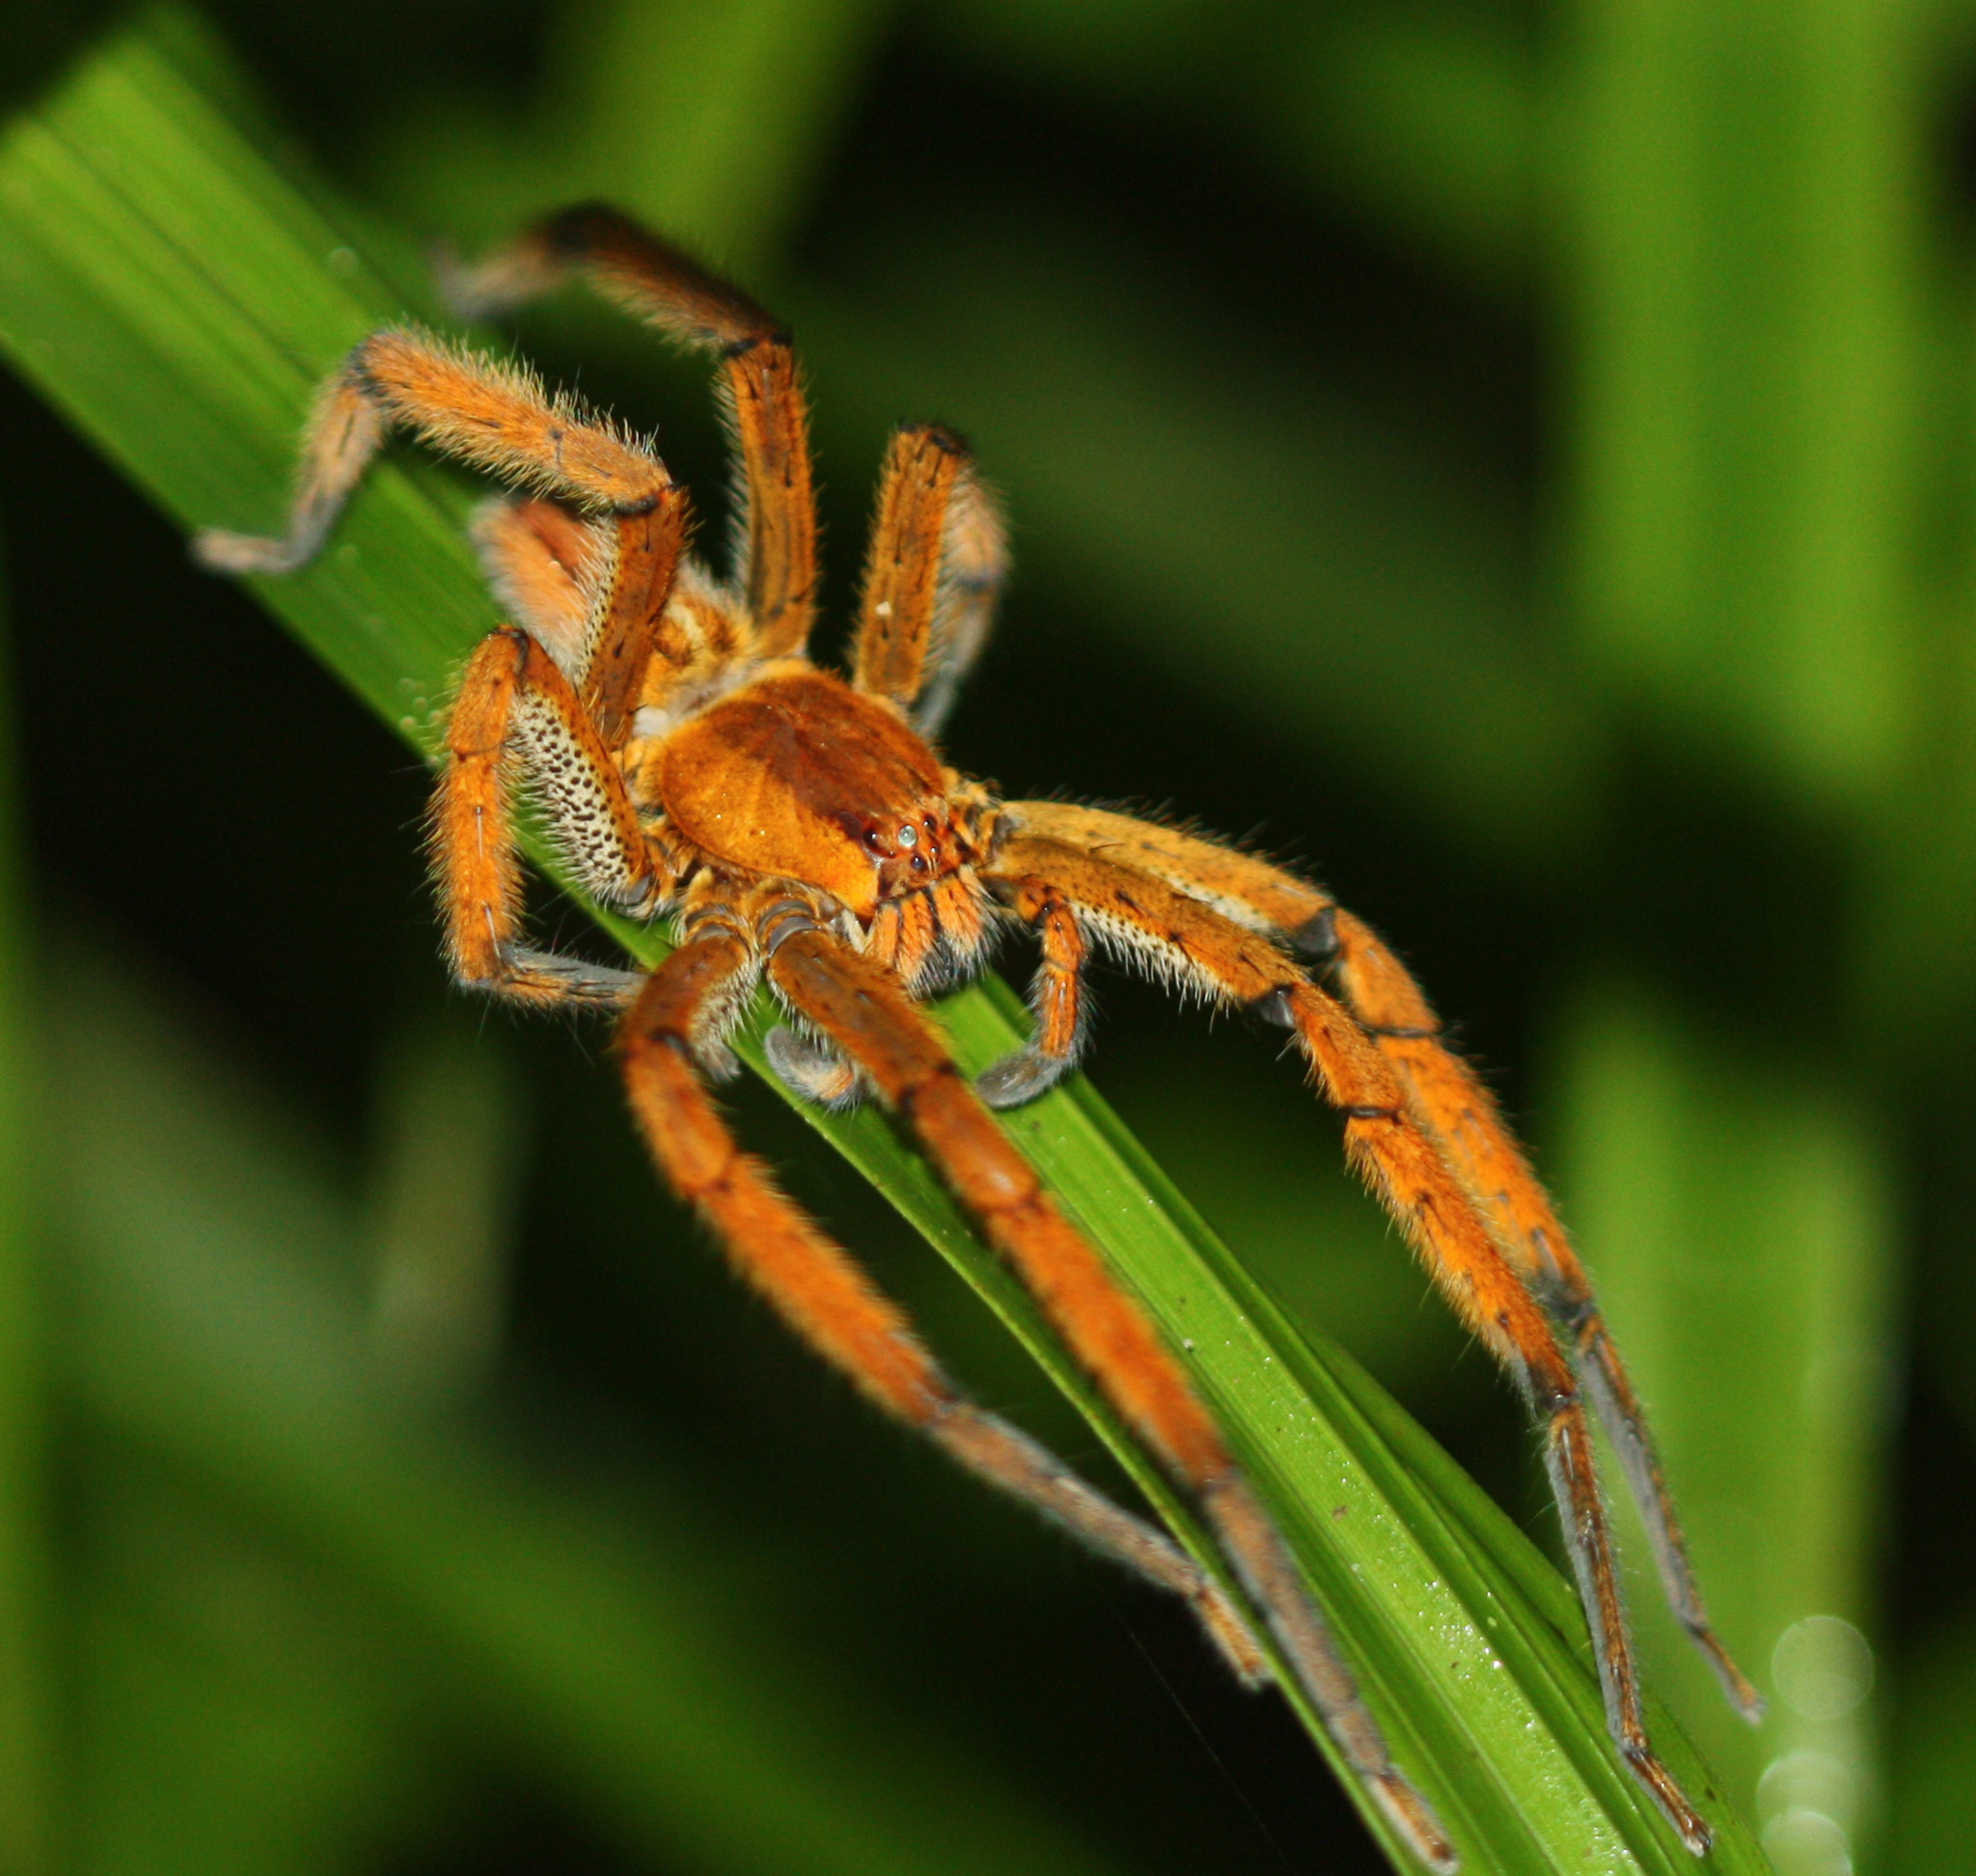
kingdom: Animalia
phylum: Arthropoda
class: Arachnida
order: Araneae
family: Trechaleidae
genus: Cupiennius
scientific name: Cupiennius getazi
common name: Wandering spiders
